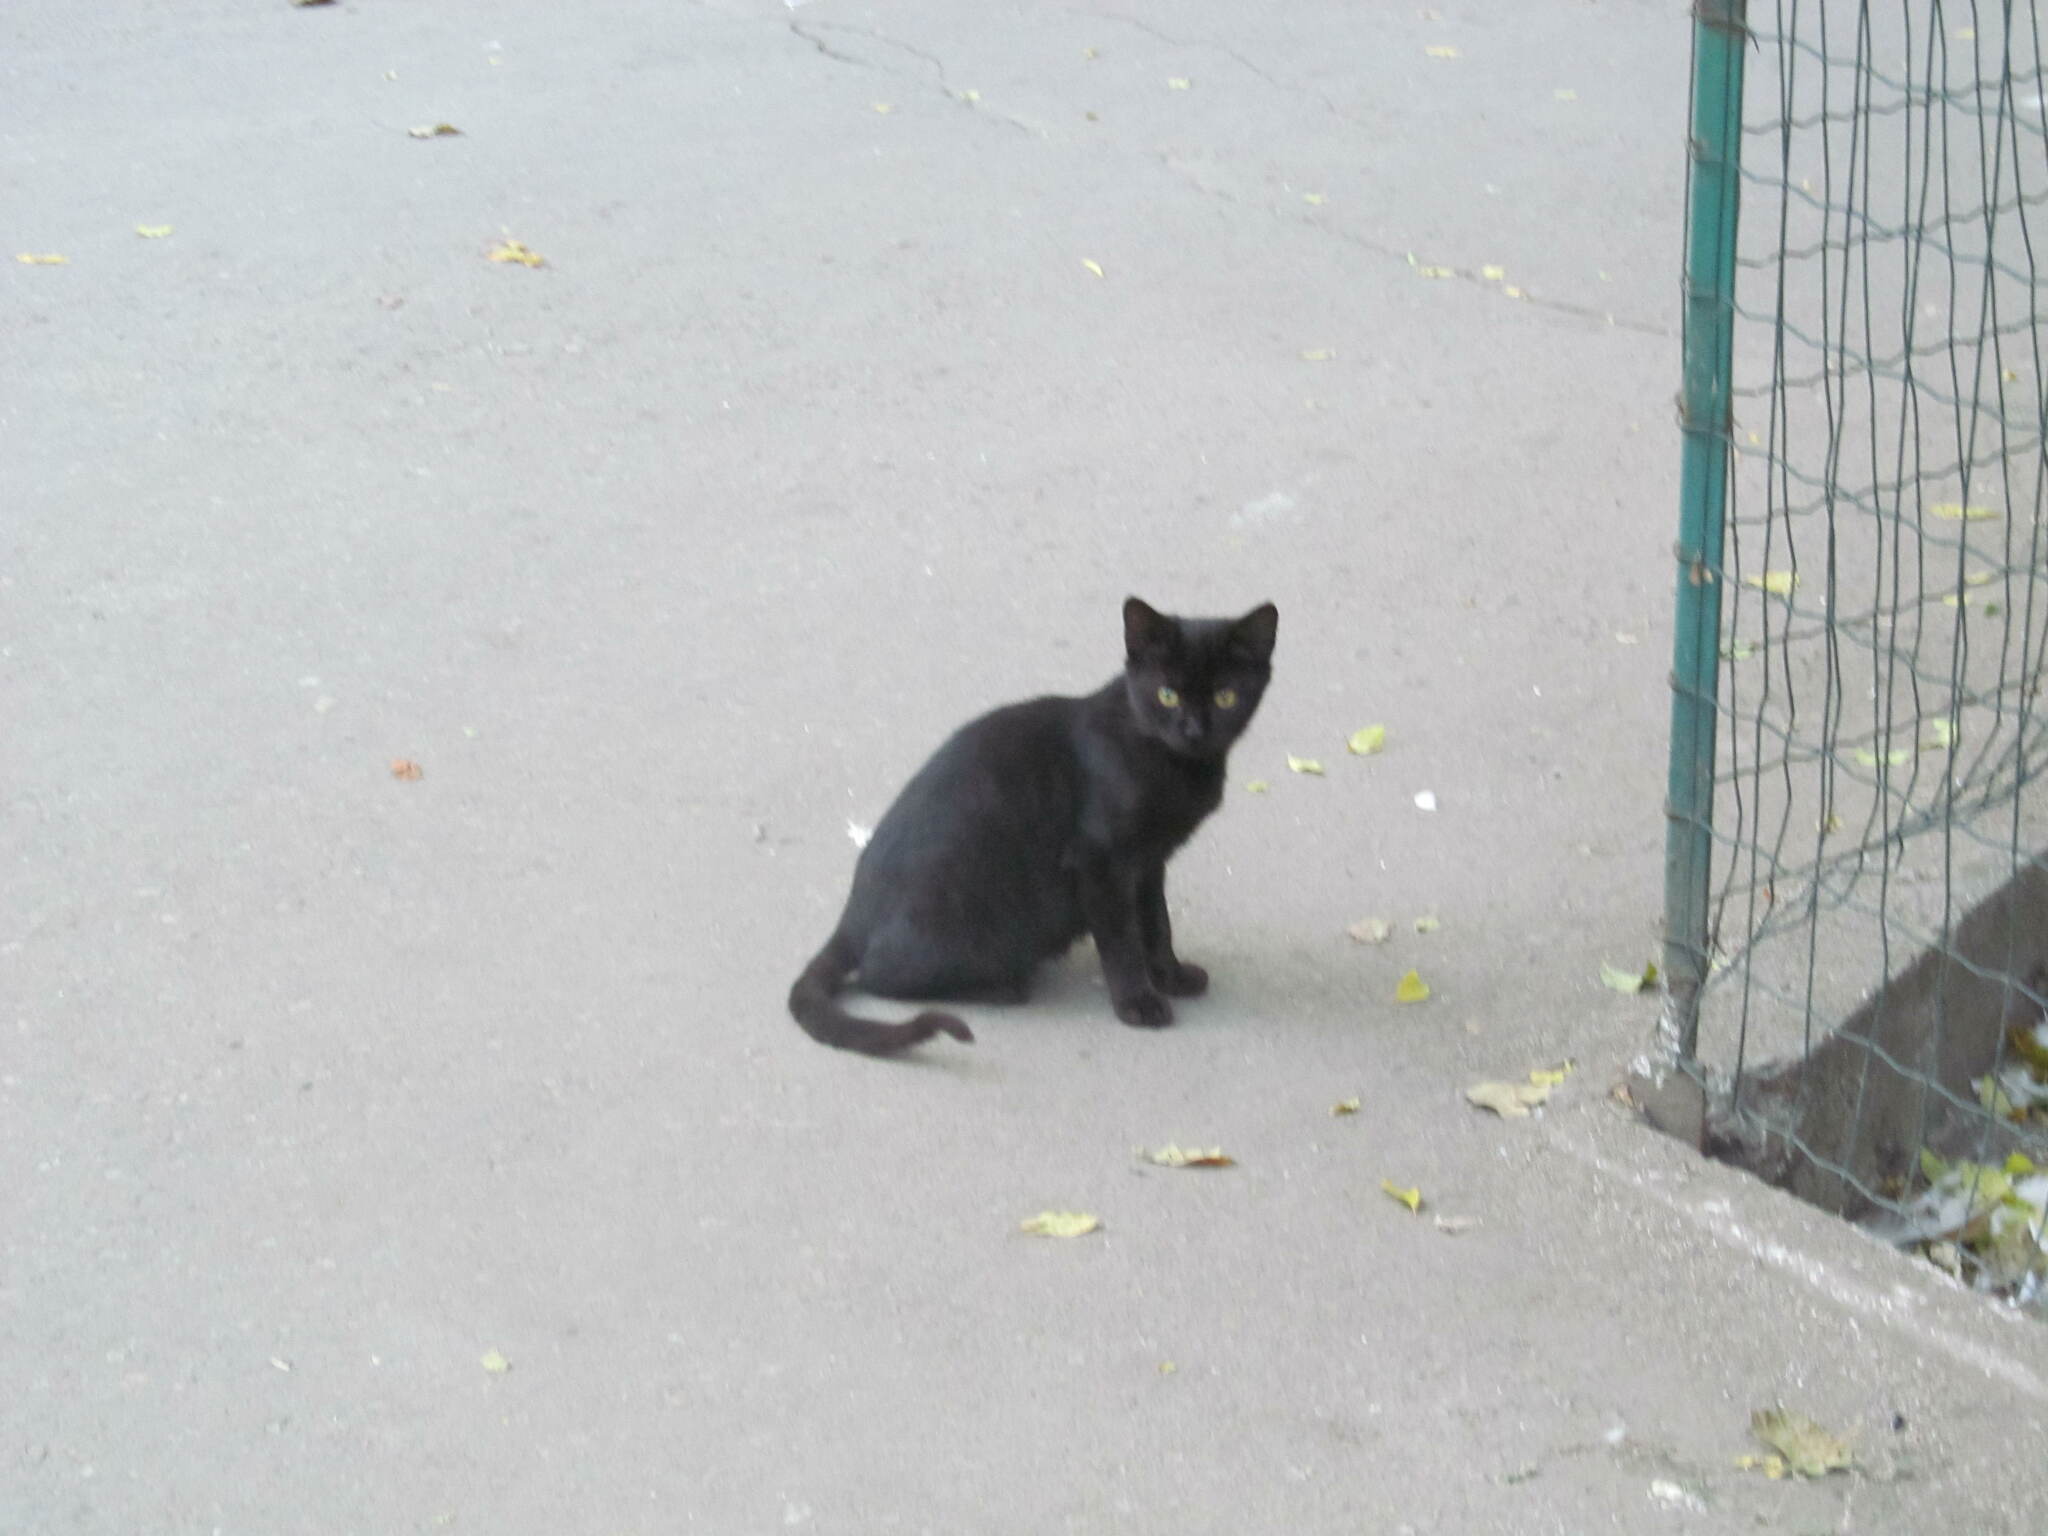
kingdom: Animalia
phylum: Chordata
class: Mammalia
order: Carnivora
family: Felidae
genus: Felis
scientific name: Felis catus
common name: Domestic cat
